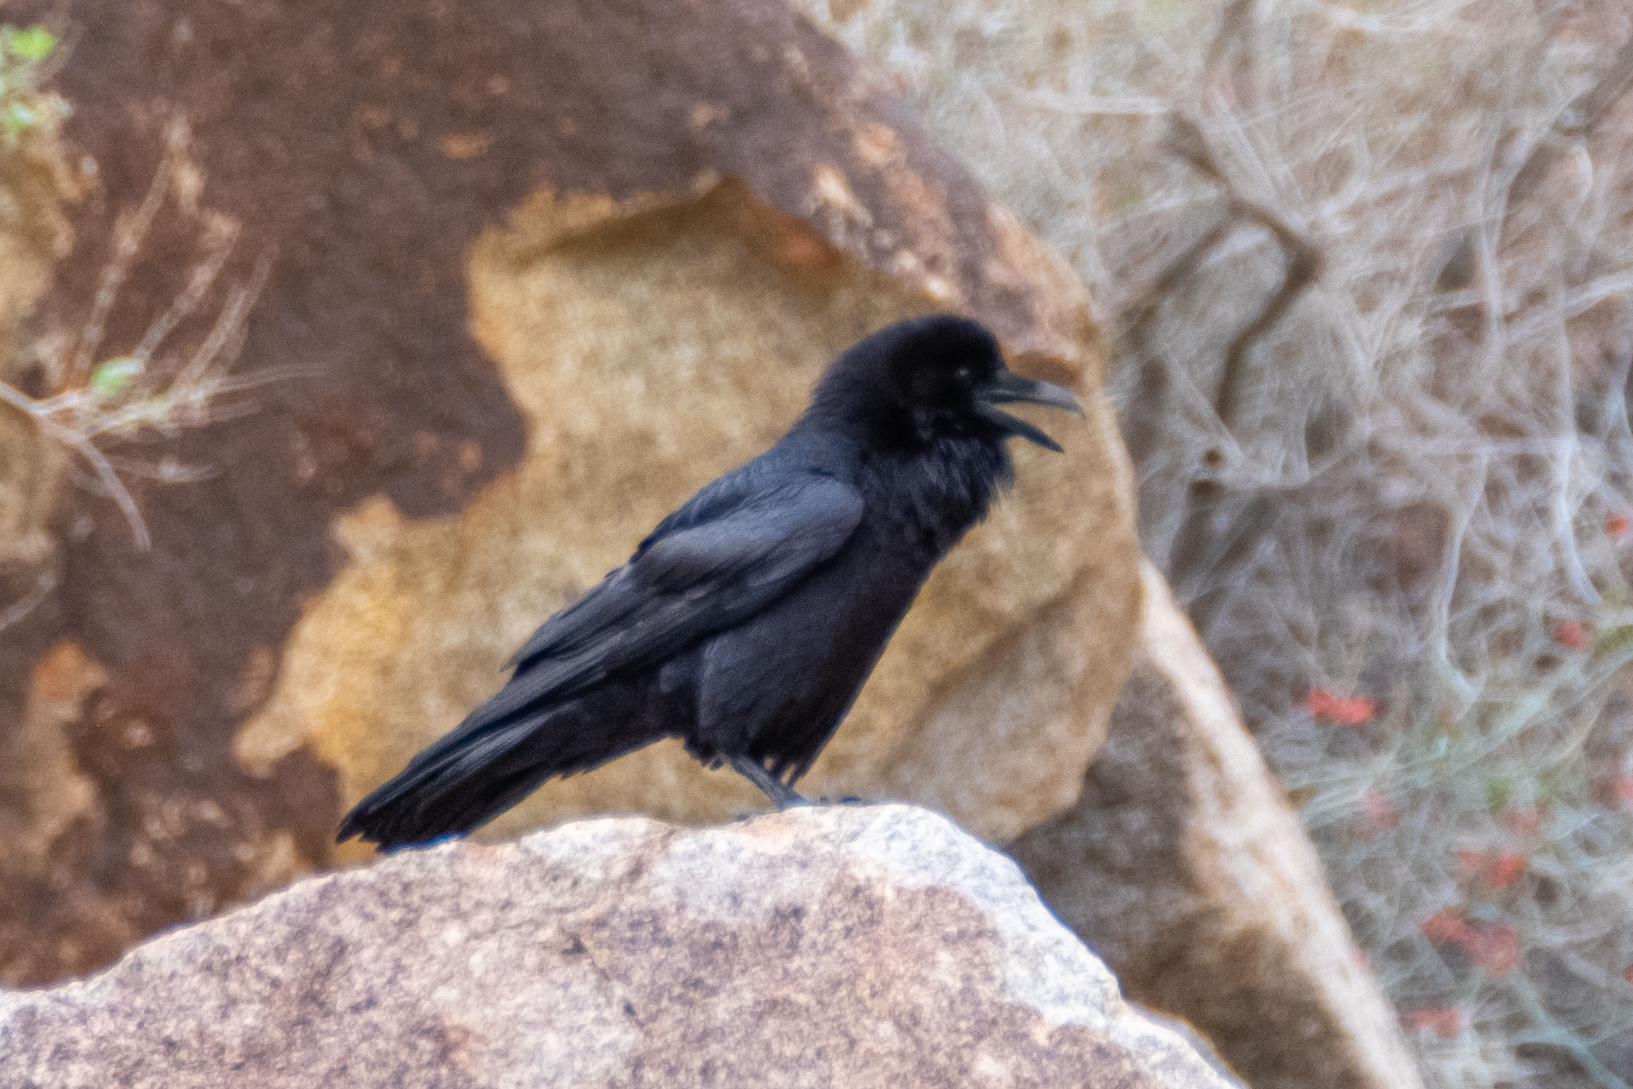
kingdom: Animalia
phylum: Chordata
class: Aves
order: Passeriformes
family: Corvidae
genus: Corvus
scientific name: Corvus corax
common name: Common raven
